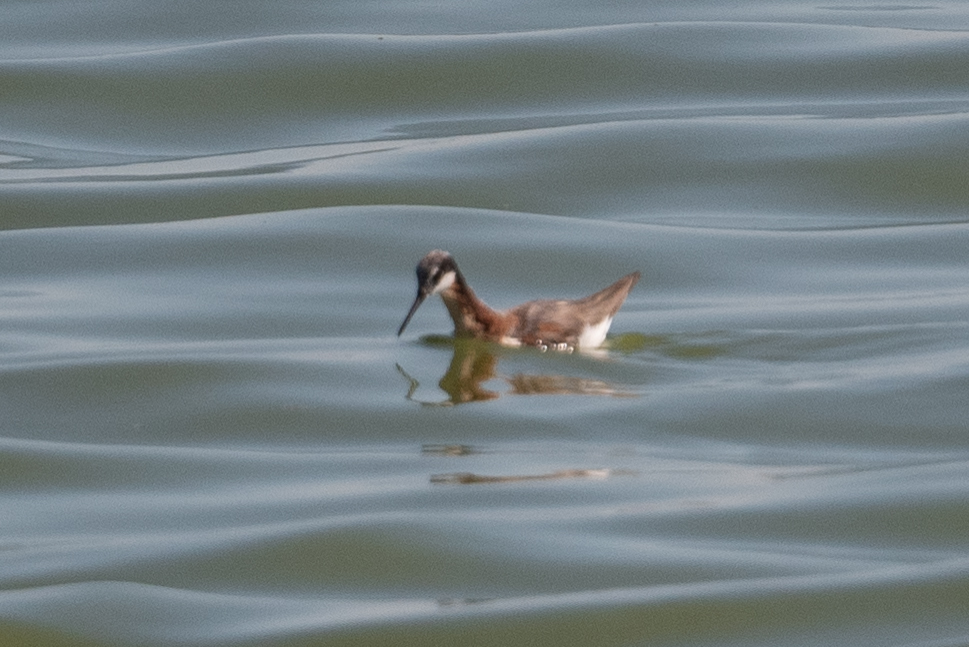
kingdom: Animalia
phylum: Chordata
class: Aves
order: Charadriiformes
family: Scolopacidae
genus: Phalaropus
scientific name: Phalaropus tricolor
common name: Wilson's phalarope
